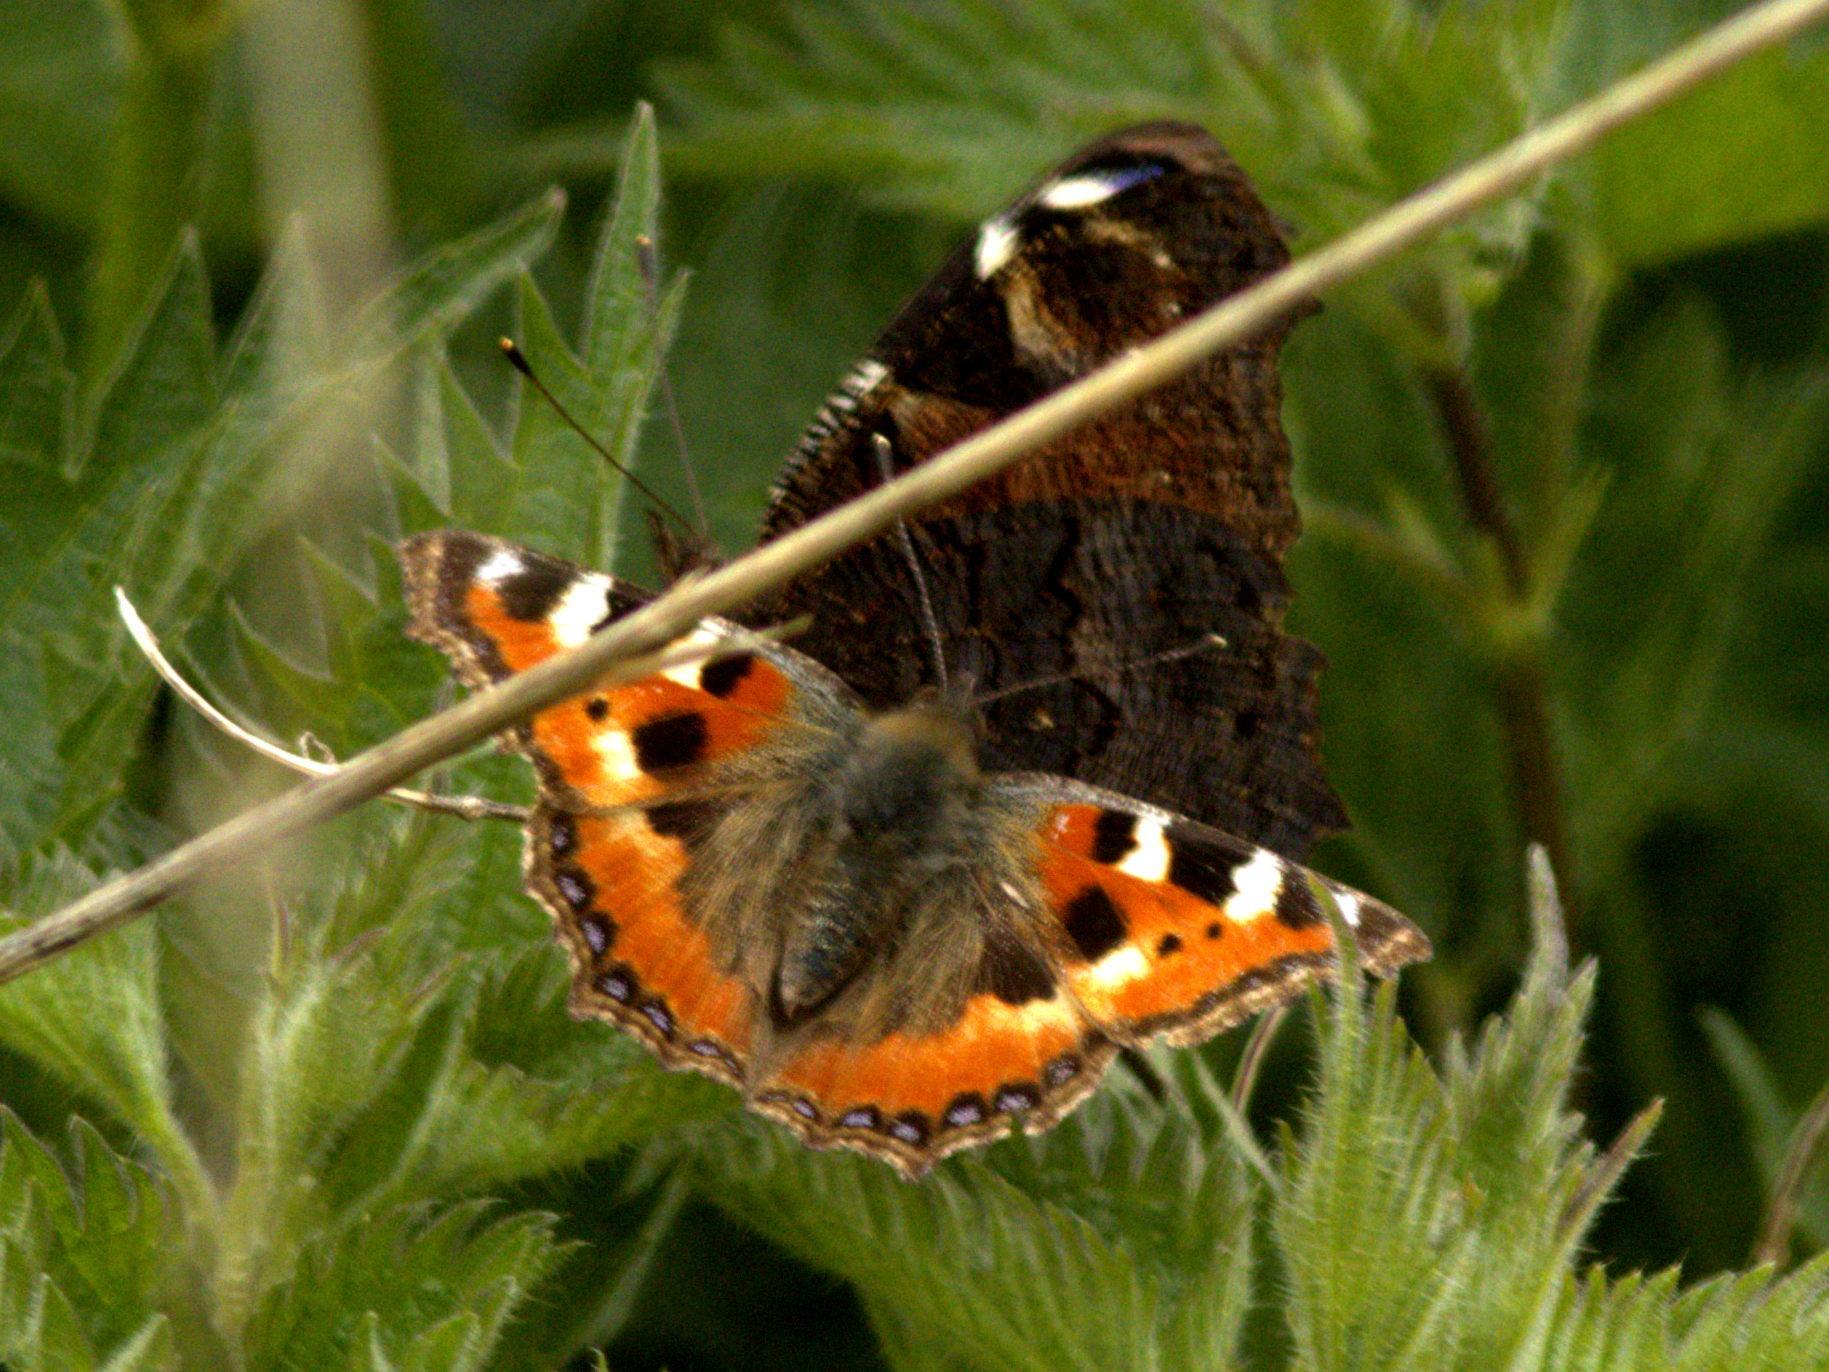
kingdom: Animalia
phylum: Arthropoda
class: Insecta
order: Lepidoptera
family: Nymphalidae
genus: Aglais
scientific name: Aglais urticae
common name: Small tortoiseshell
